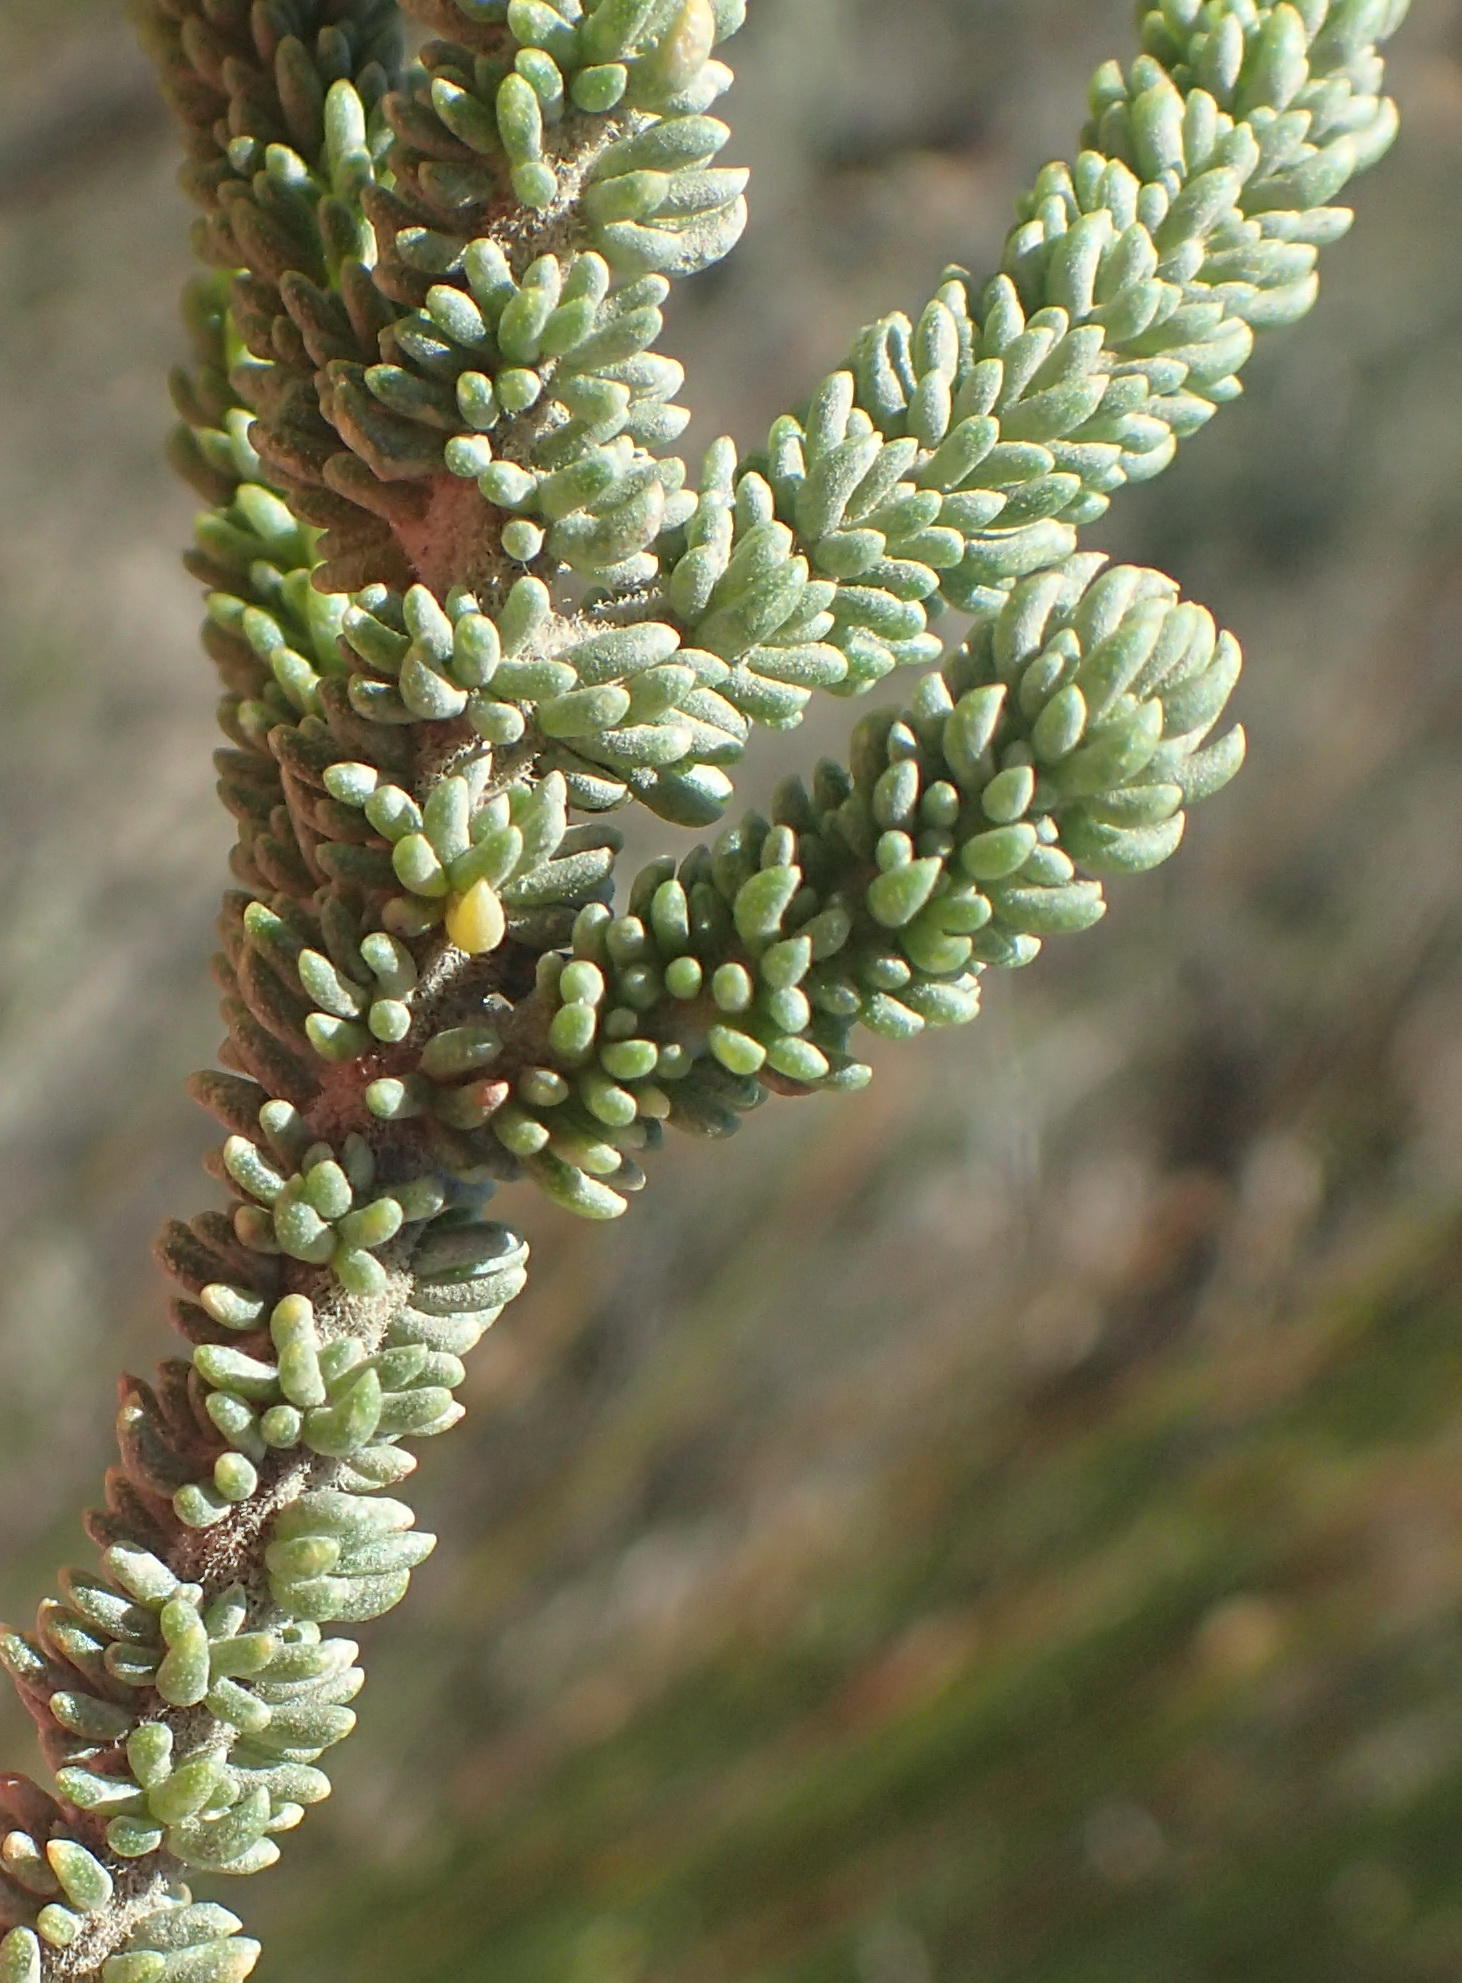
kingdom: Plantae
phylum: Tracheophyta
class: Magnoliopsida
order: Fabales
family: Fabaceae
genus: Aspalathus
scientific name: Aspalathus pinguis
